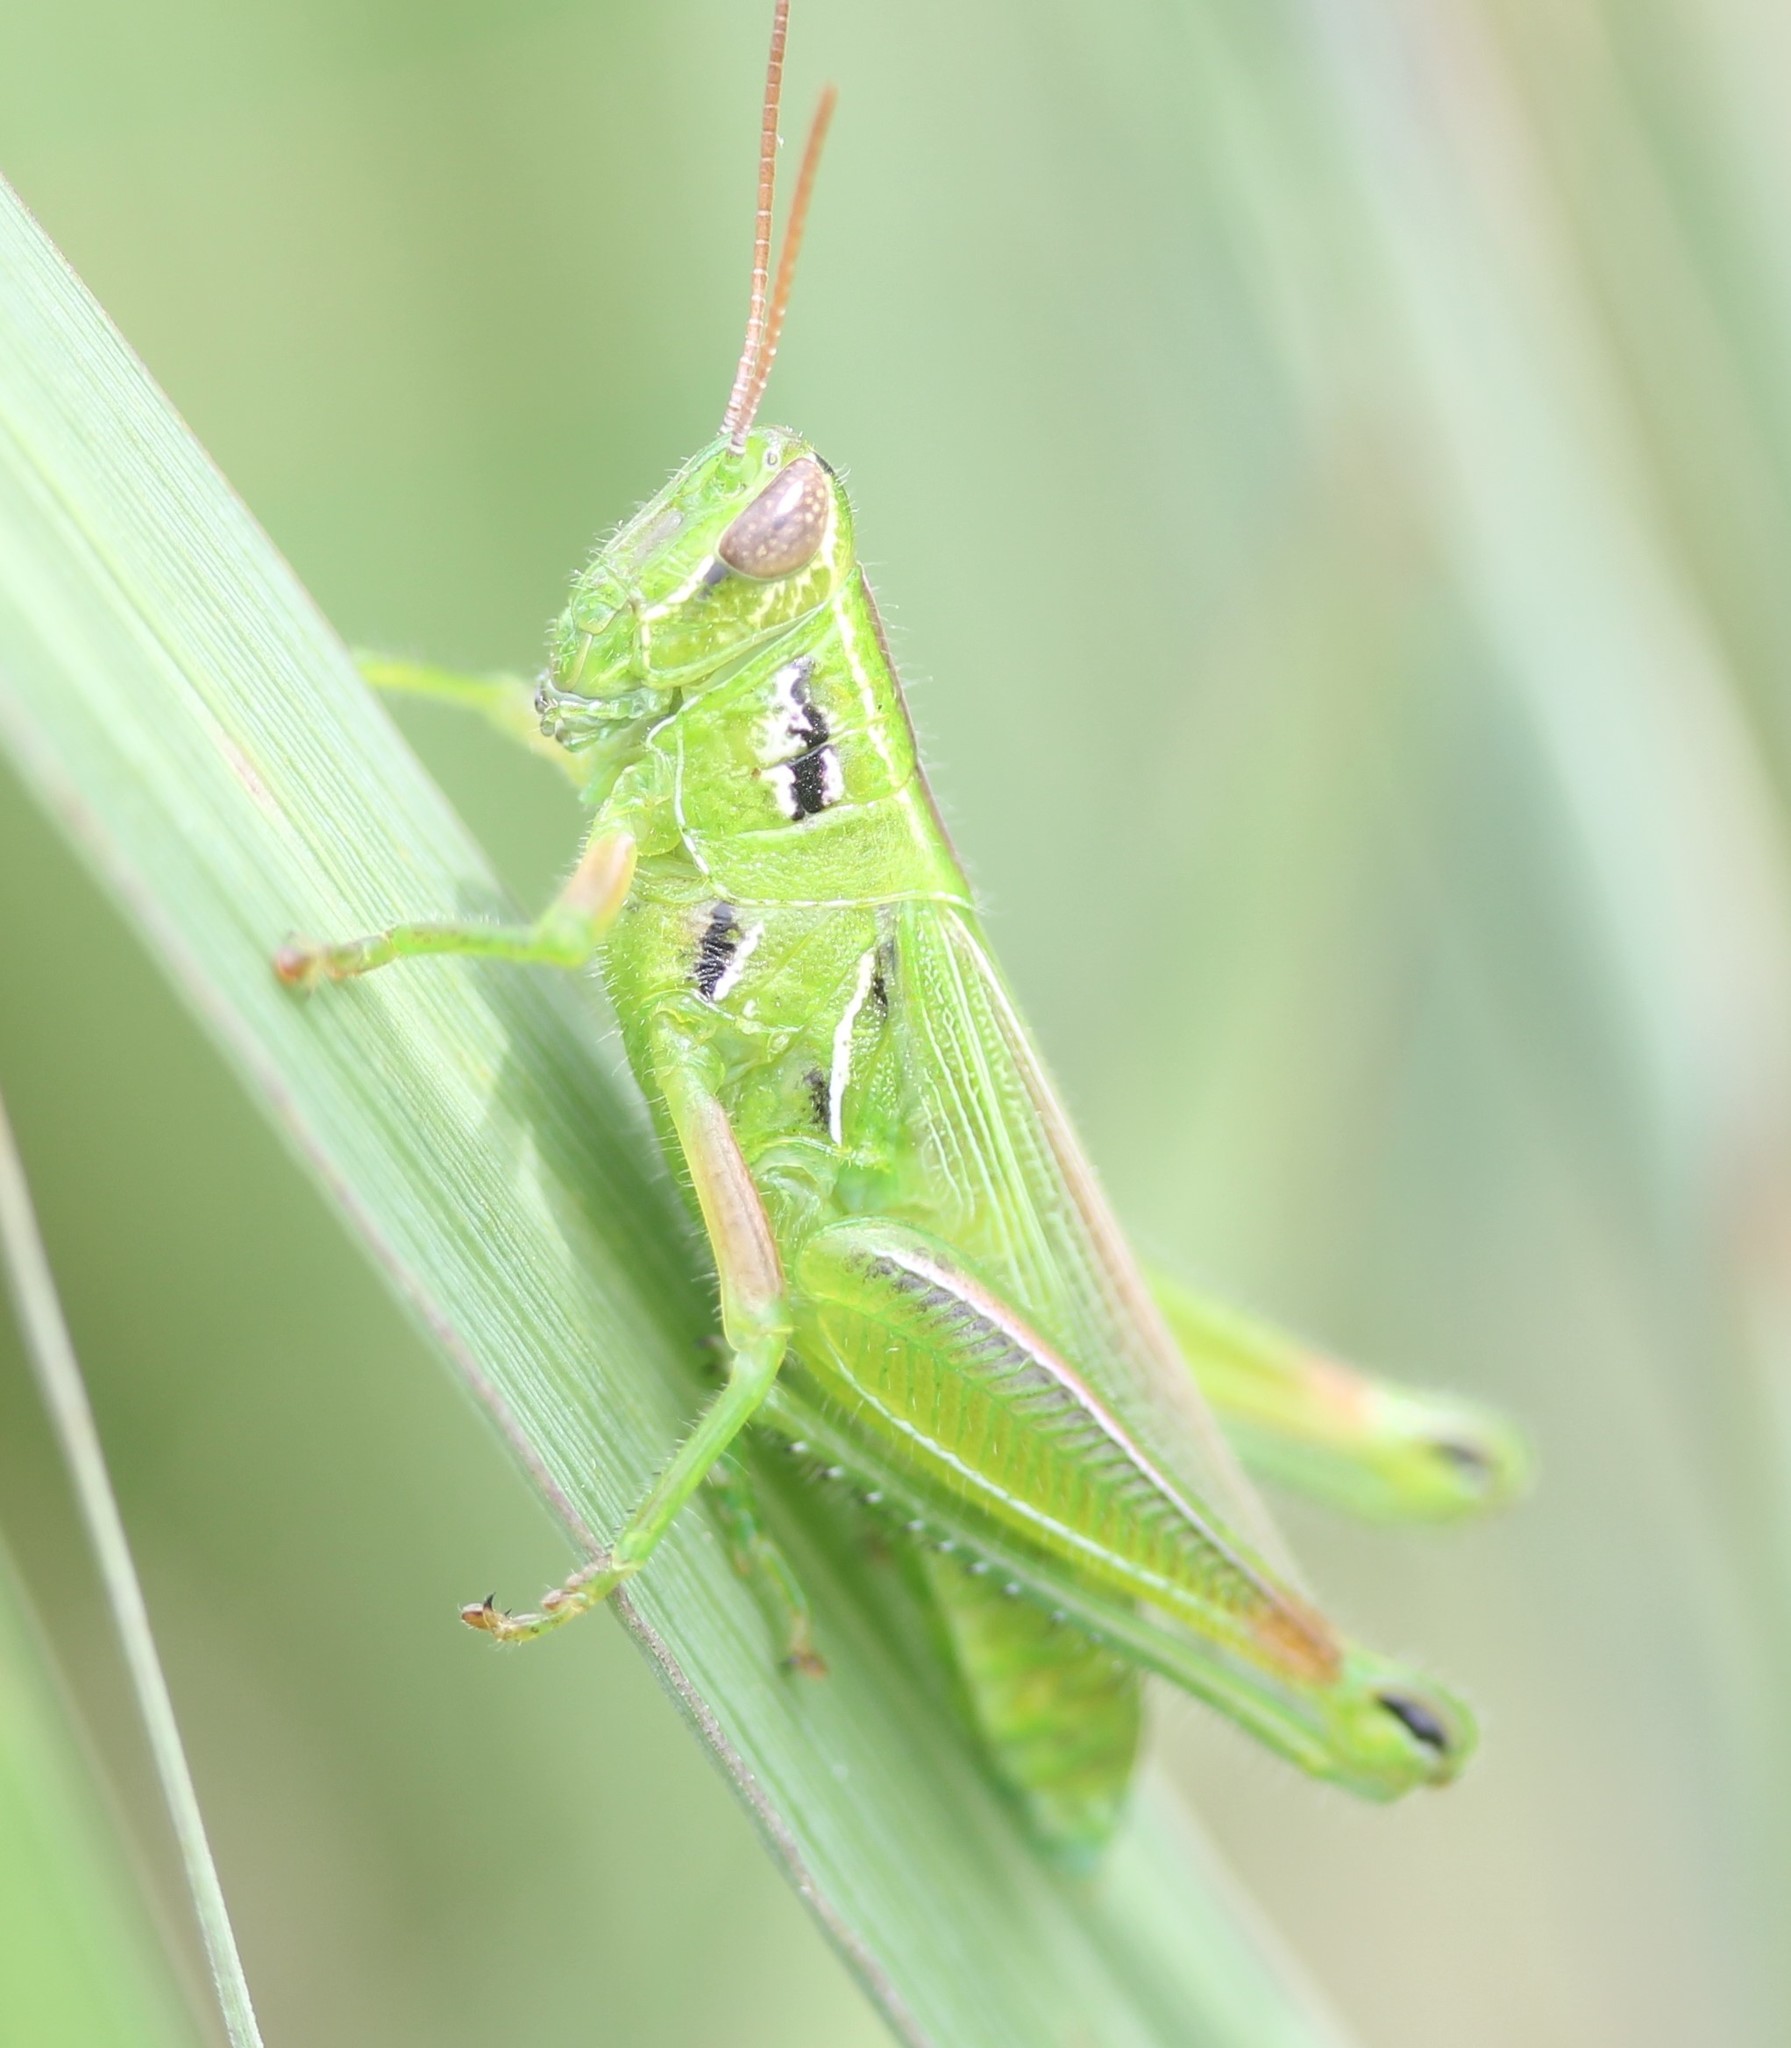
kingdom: Animalia
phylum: Arthropoda
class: Insecta
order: Orthoptera
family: Acrididae
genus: Hesperotettix
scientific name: Hesperotettix viridis
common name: Meadow purple-striped grasshopper
